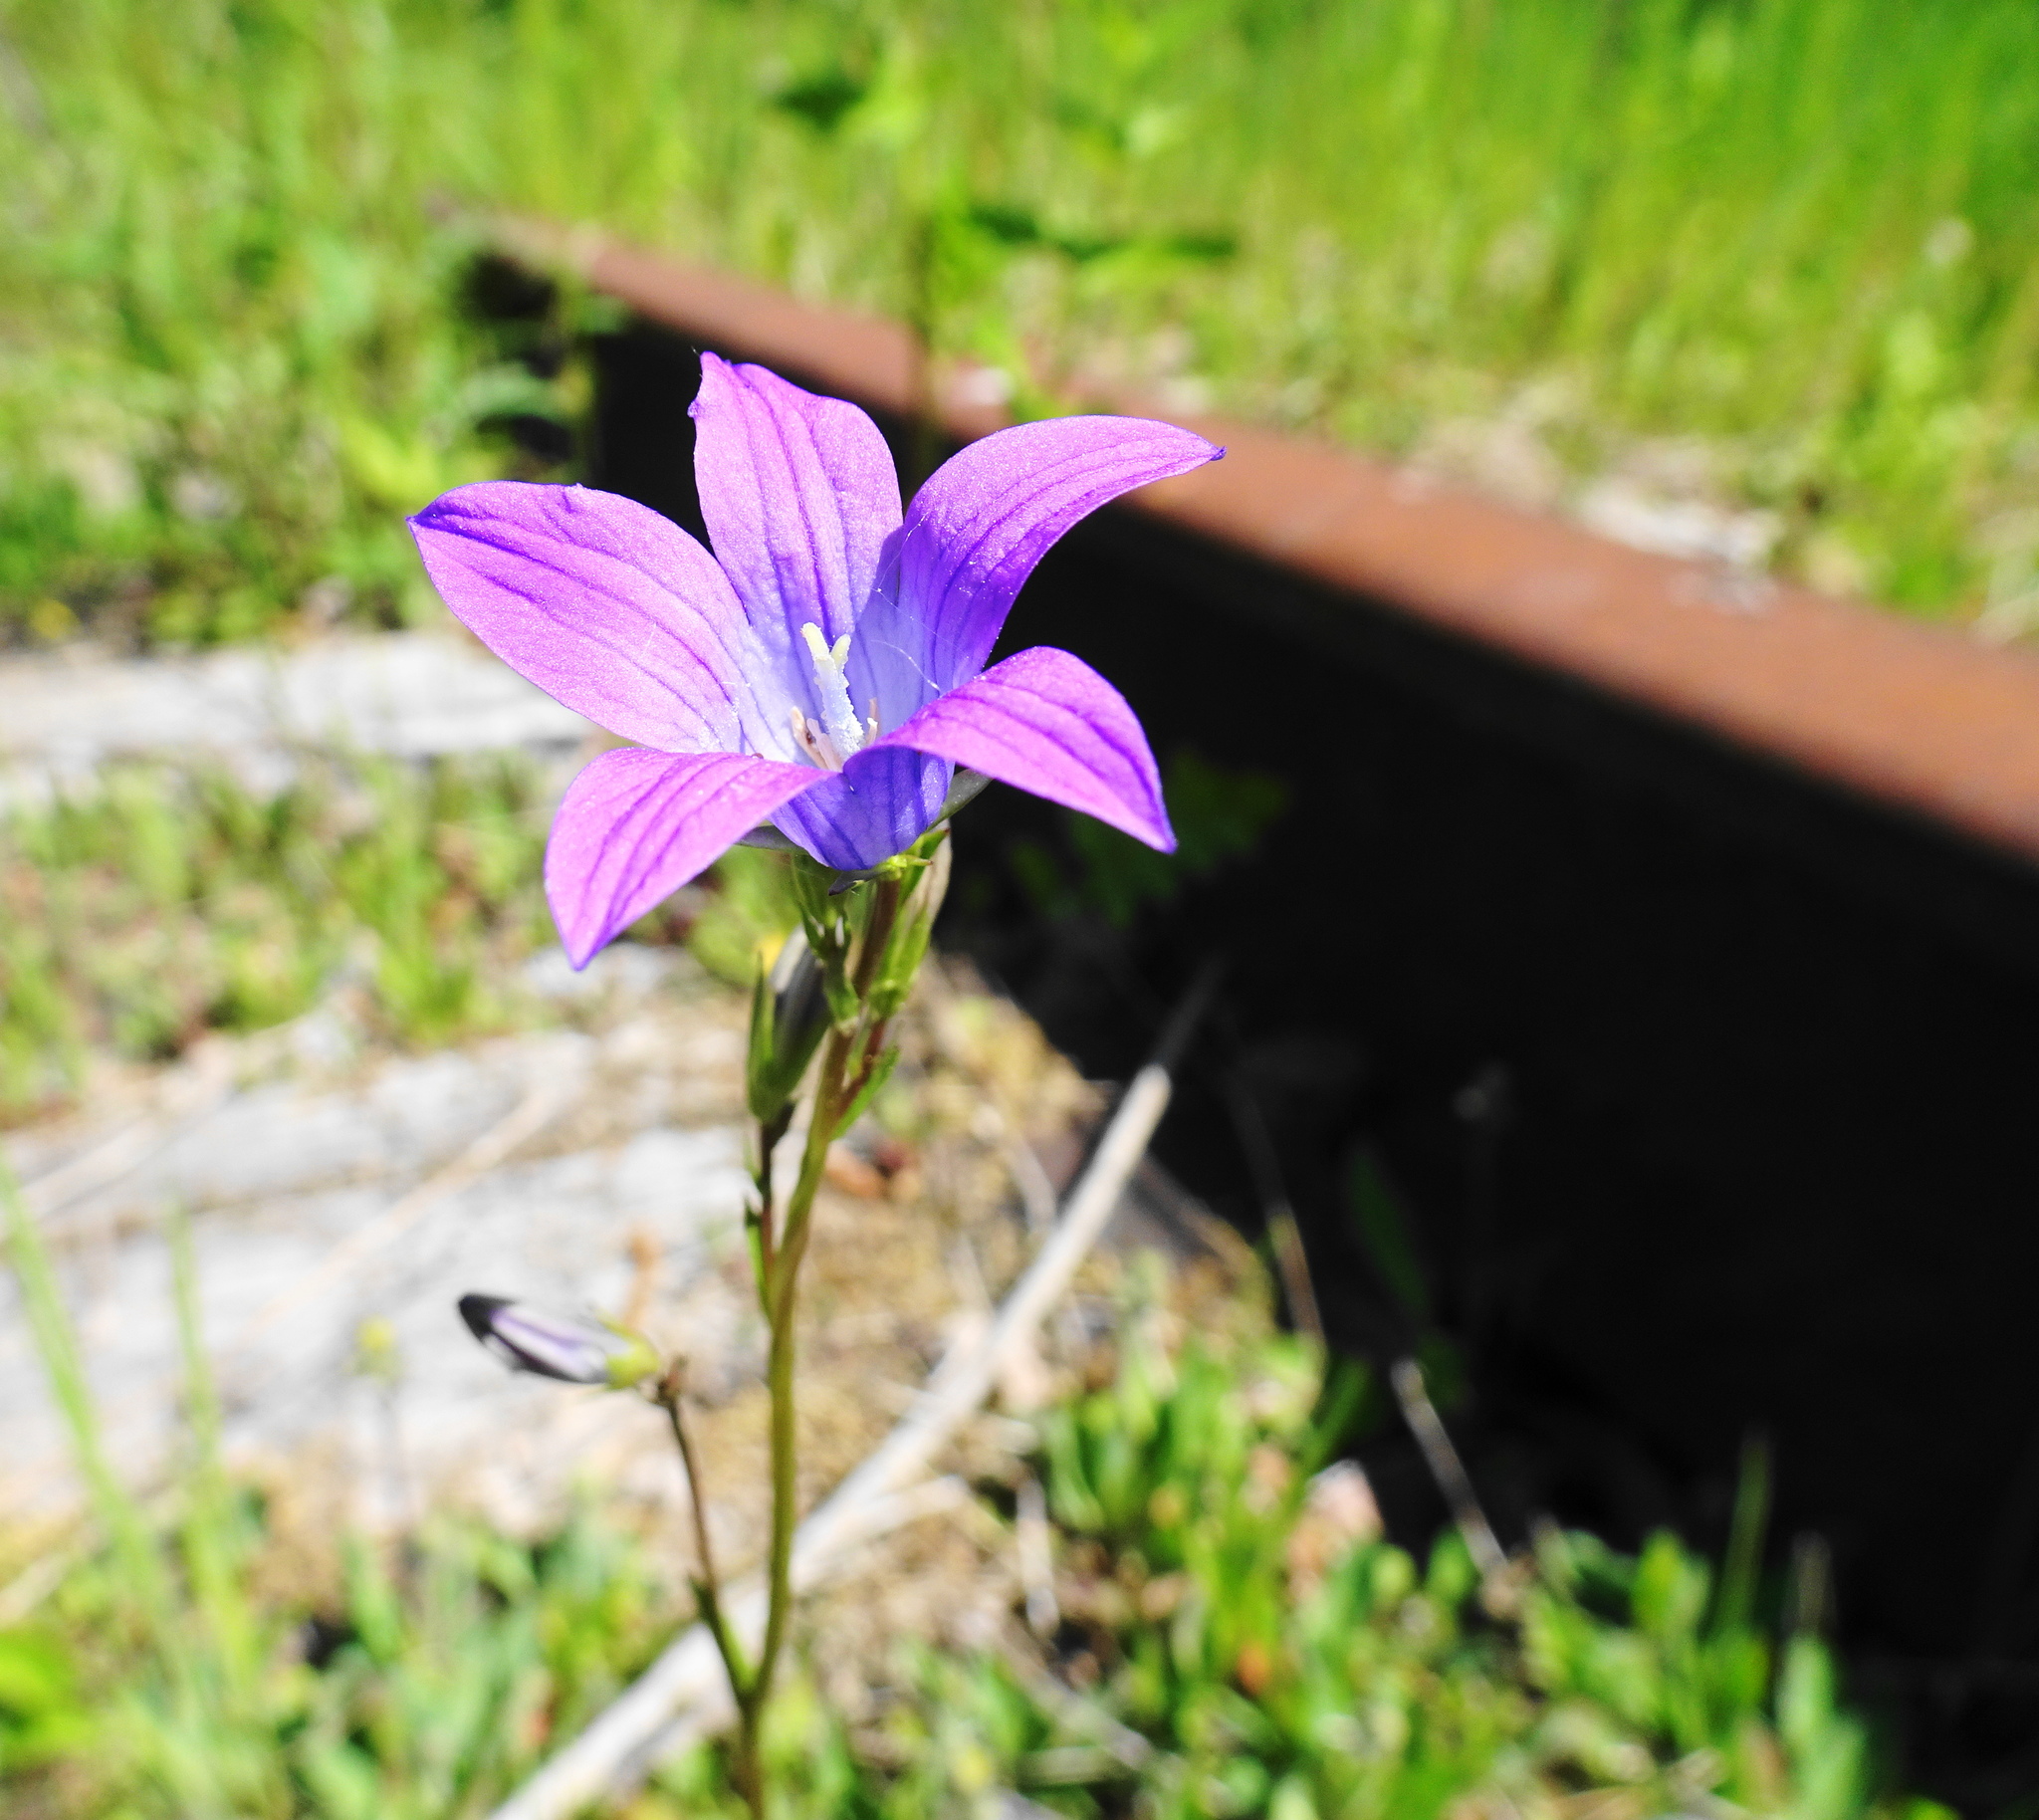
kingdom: Plantae
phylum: Tracheophyta
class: Magnoliopsida
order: Asterales
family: Campanulaceae
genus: Campanula
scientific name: Campanula patula
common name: Spreading bellflower
